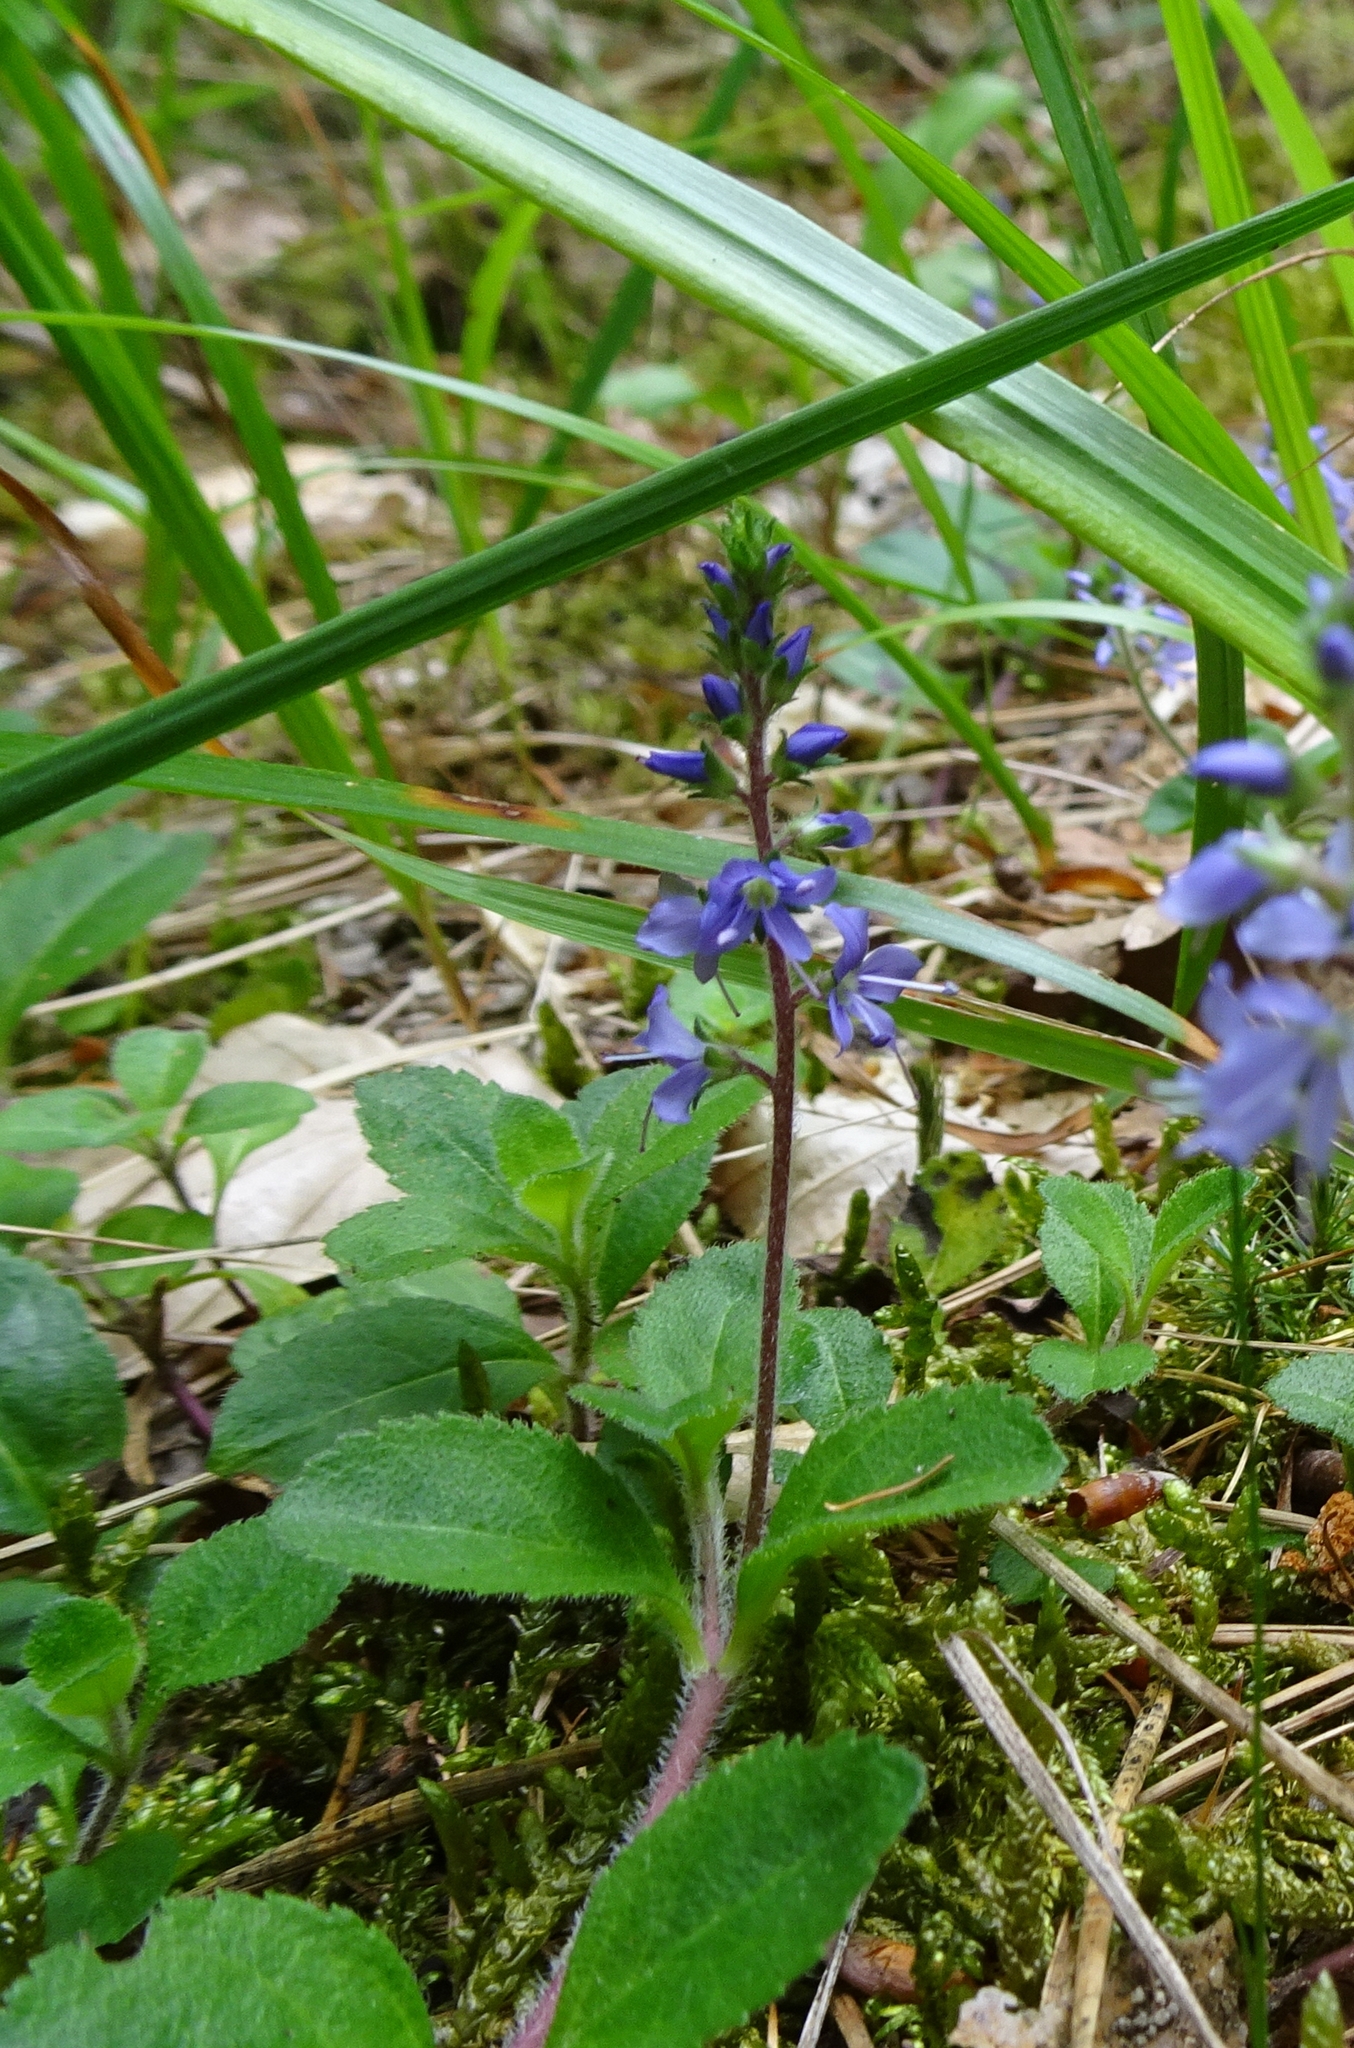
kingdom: Plantae
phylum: Tracheophyta
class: Magnoliopsida
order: Lamiales
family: Plantaginaceae
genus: Veronica
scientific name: Veronica officinalis
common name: Common speedwell
